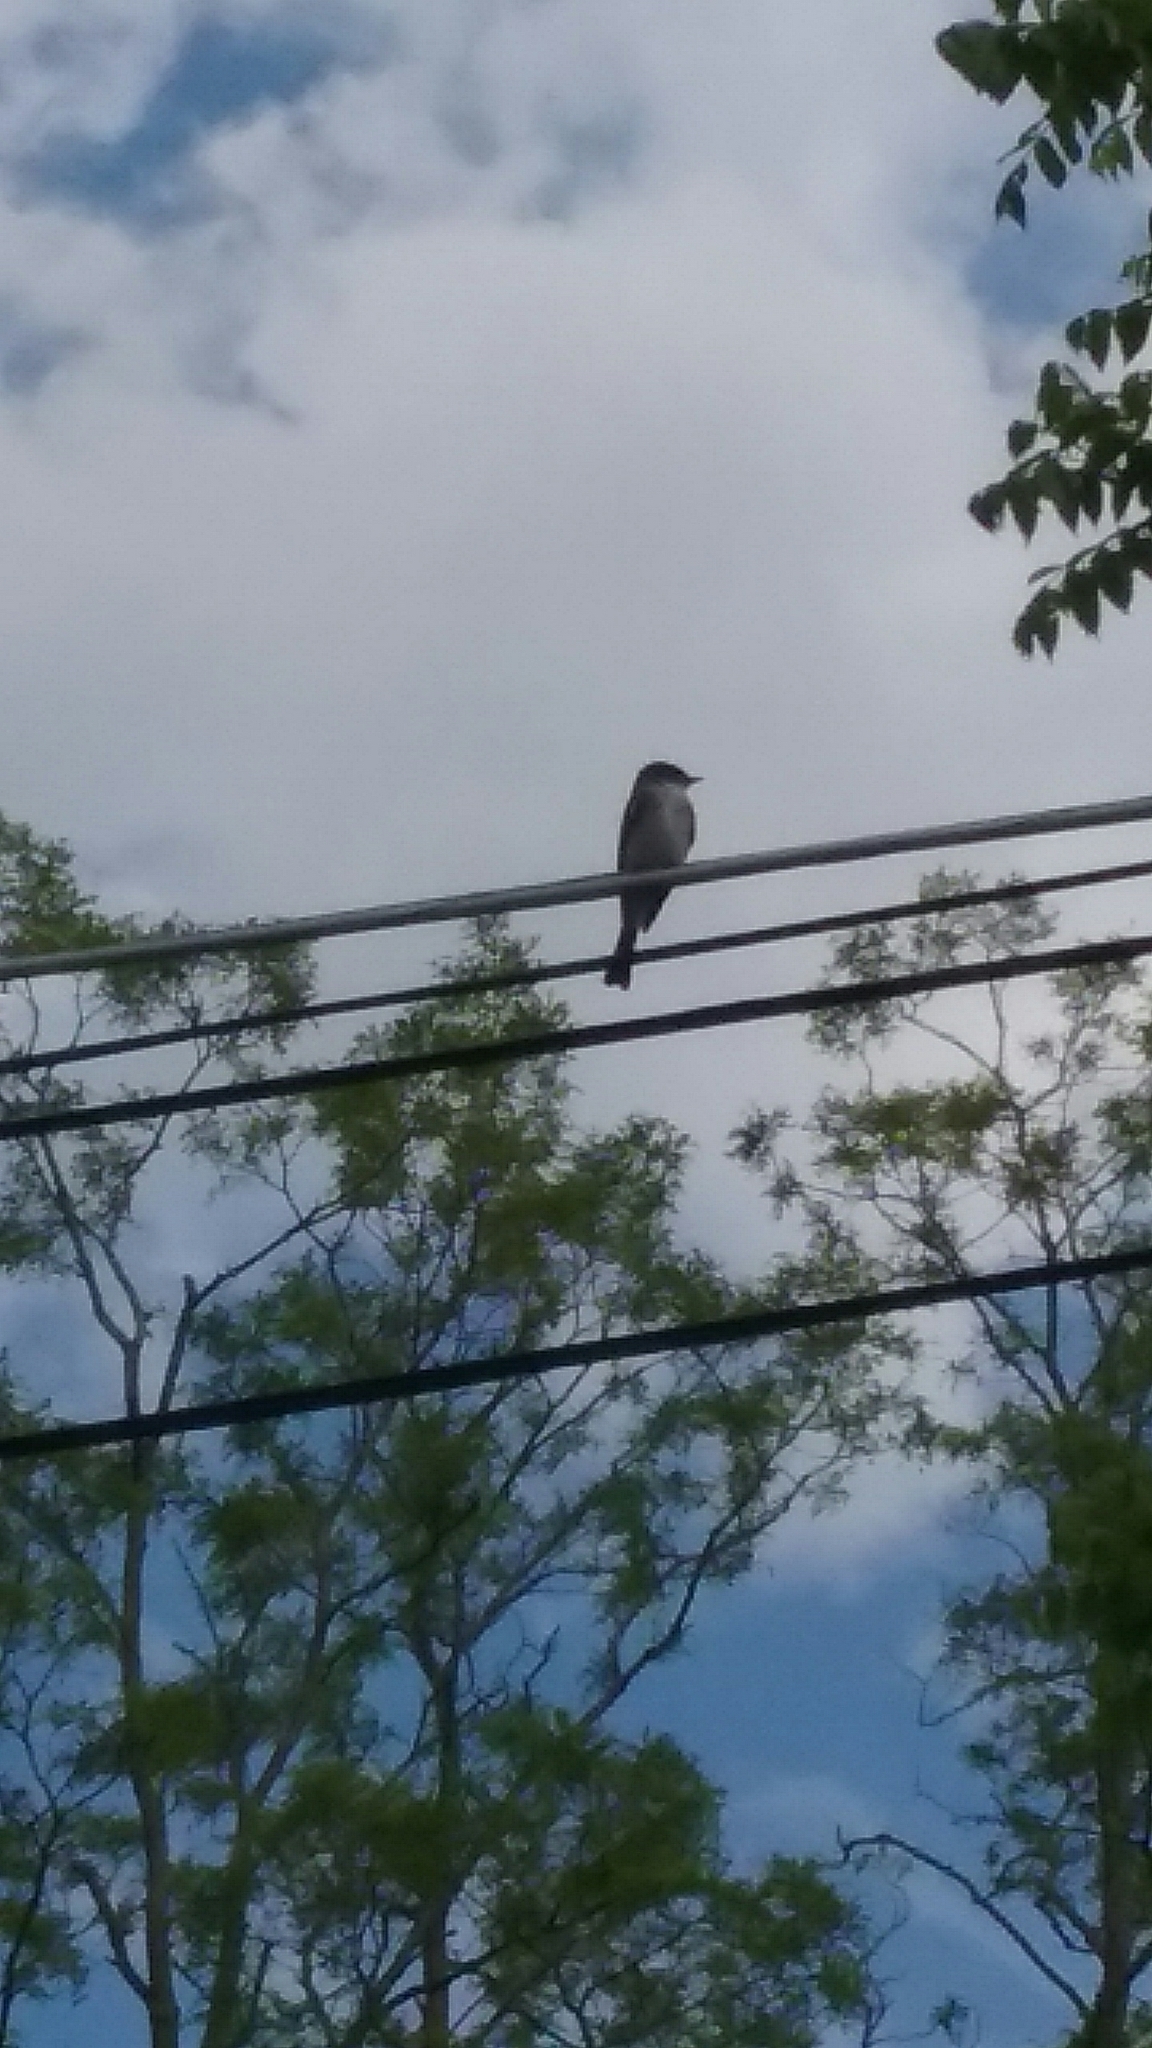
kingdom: Animalia
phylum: Chordata
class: Aves
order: Passeriformes
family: Tyrannidae
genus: Sayornis
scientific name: Sayornis phoebe
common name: Eastern phoebe
